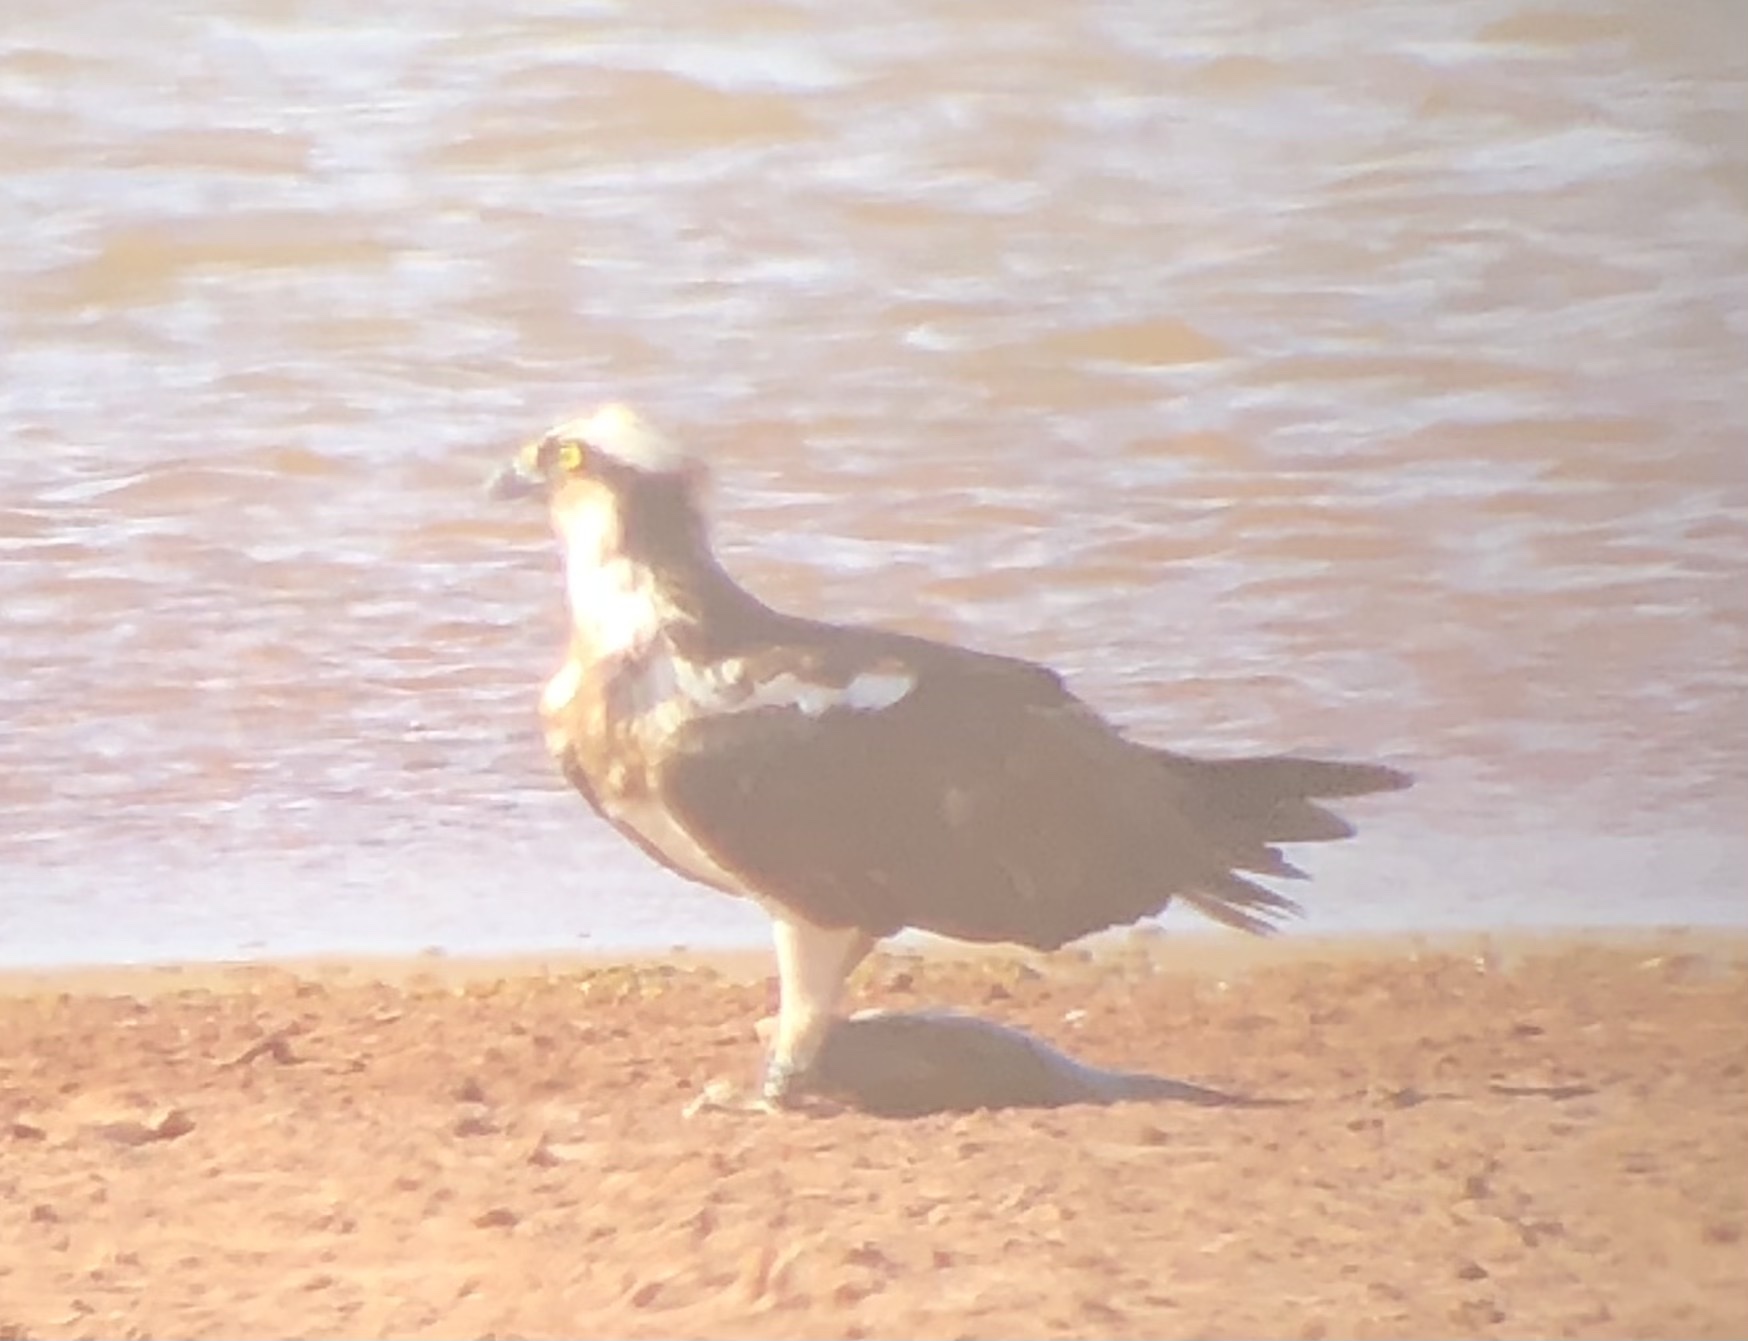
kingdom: Animalia
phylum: Chordata
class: Aves
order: Accipitriformes
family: Pandionidae
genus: Pandion
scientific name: Pandion haliaetus
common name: Osprey
